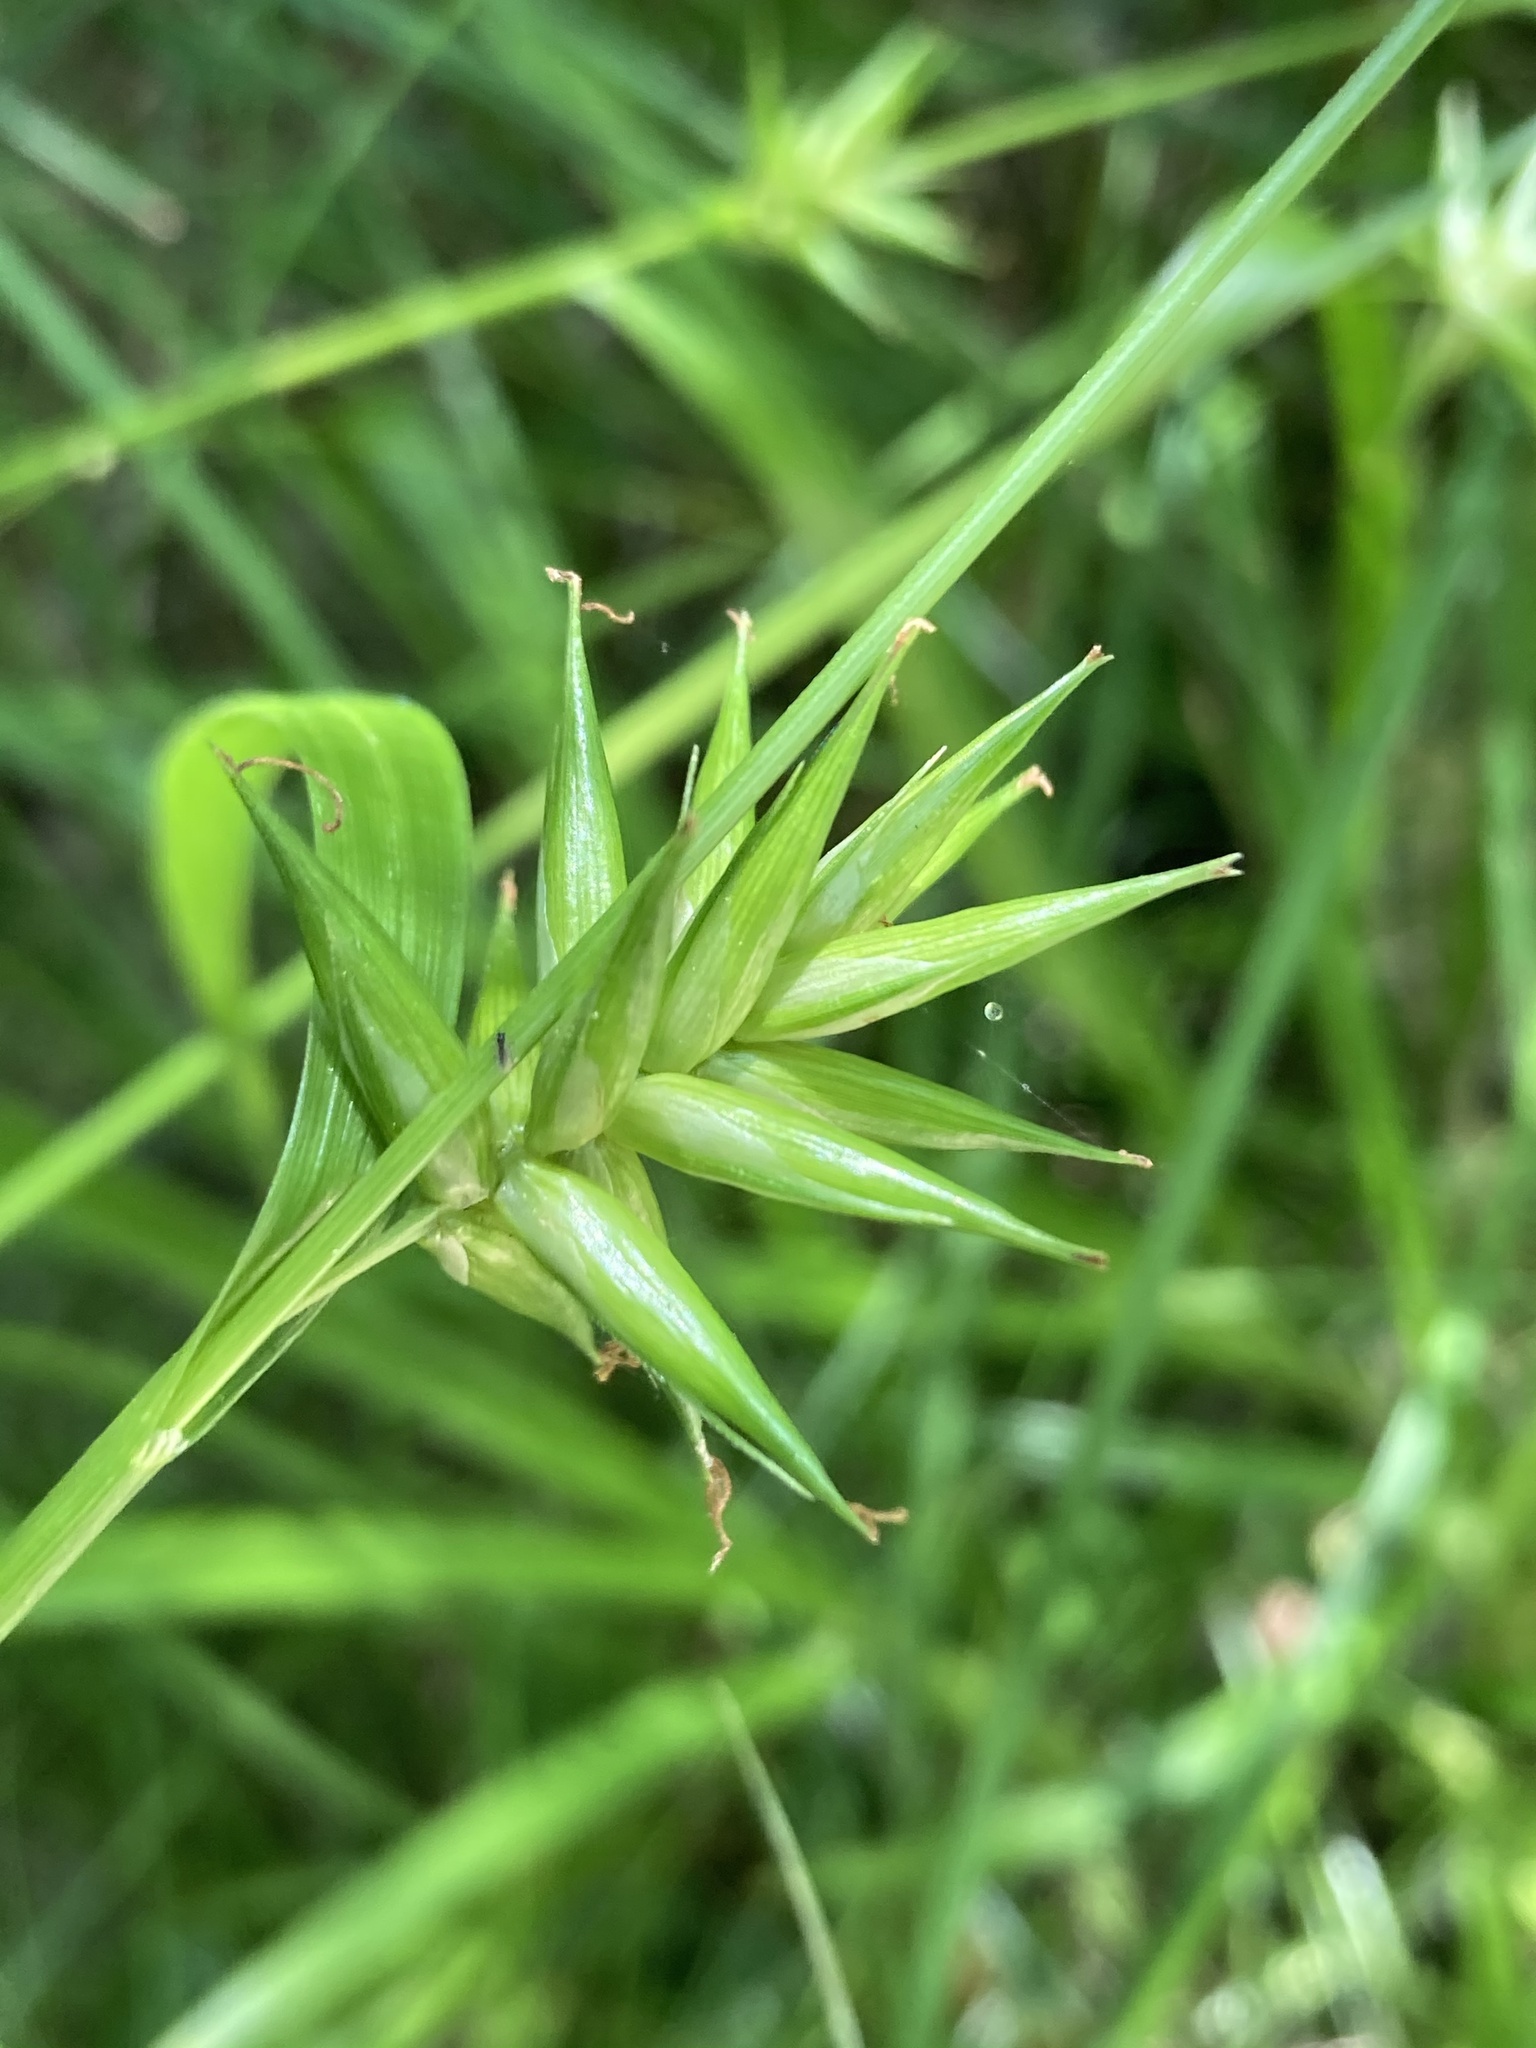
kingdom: Plantae
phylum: Tracheophyta
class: Liliopsida
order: Poales
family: Cyperaceae
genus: Carex
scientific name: Carex folliculata
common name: Northern long sedge
